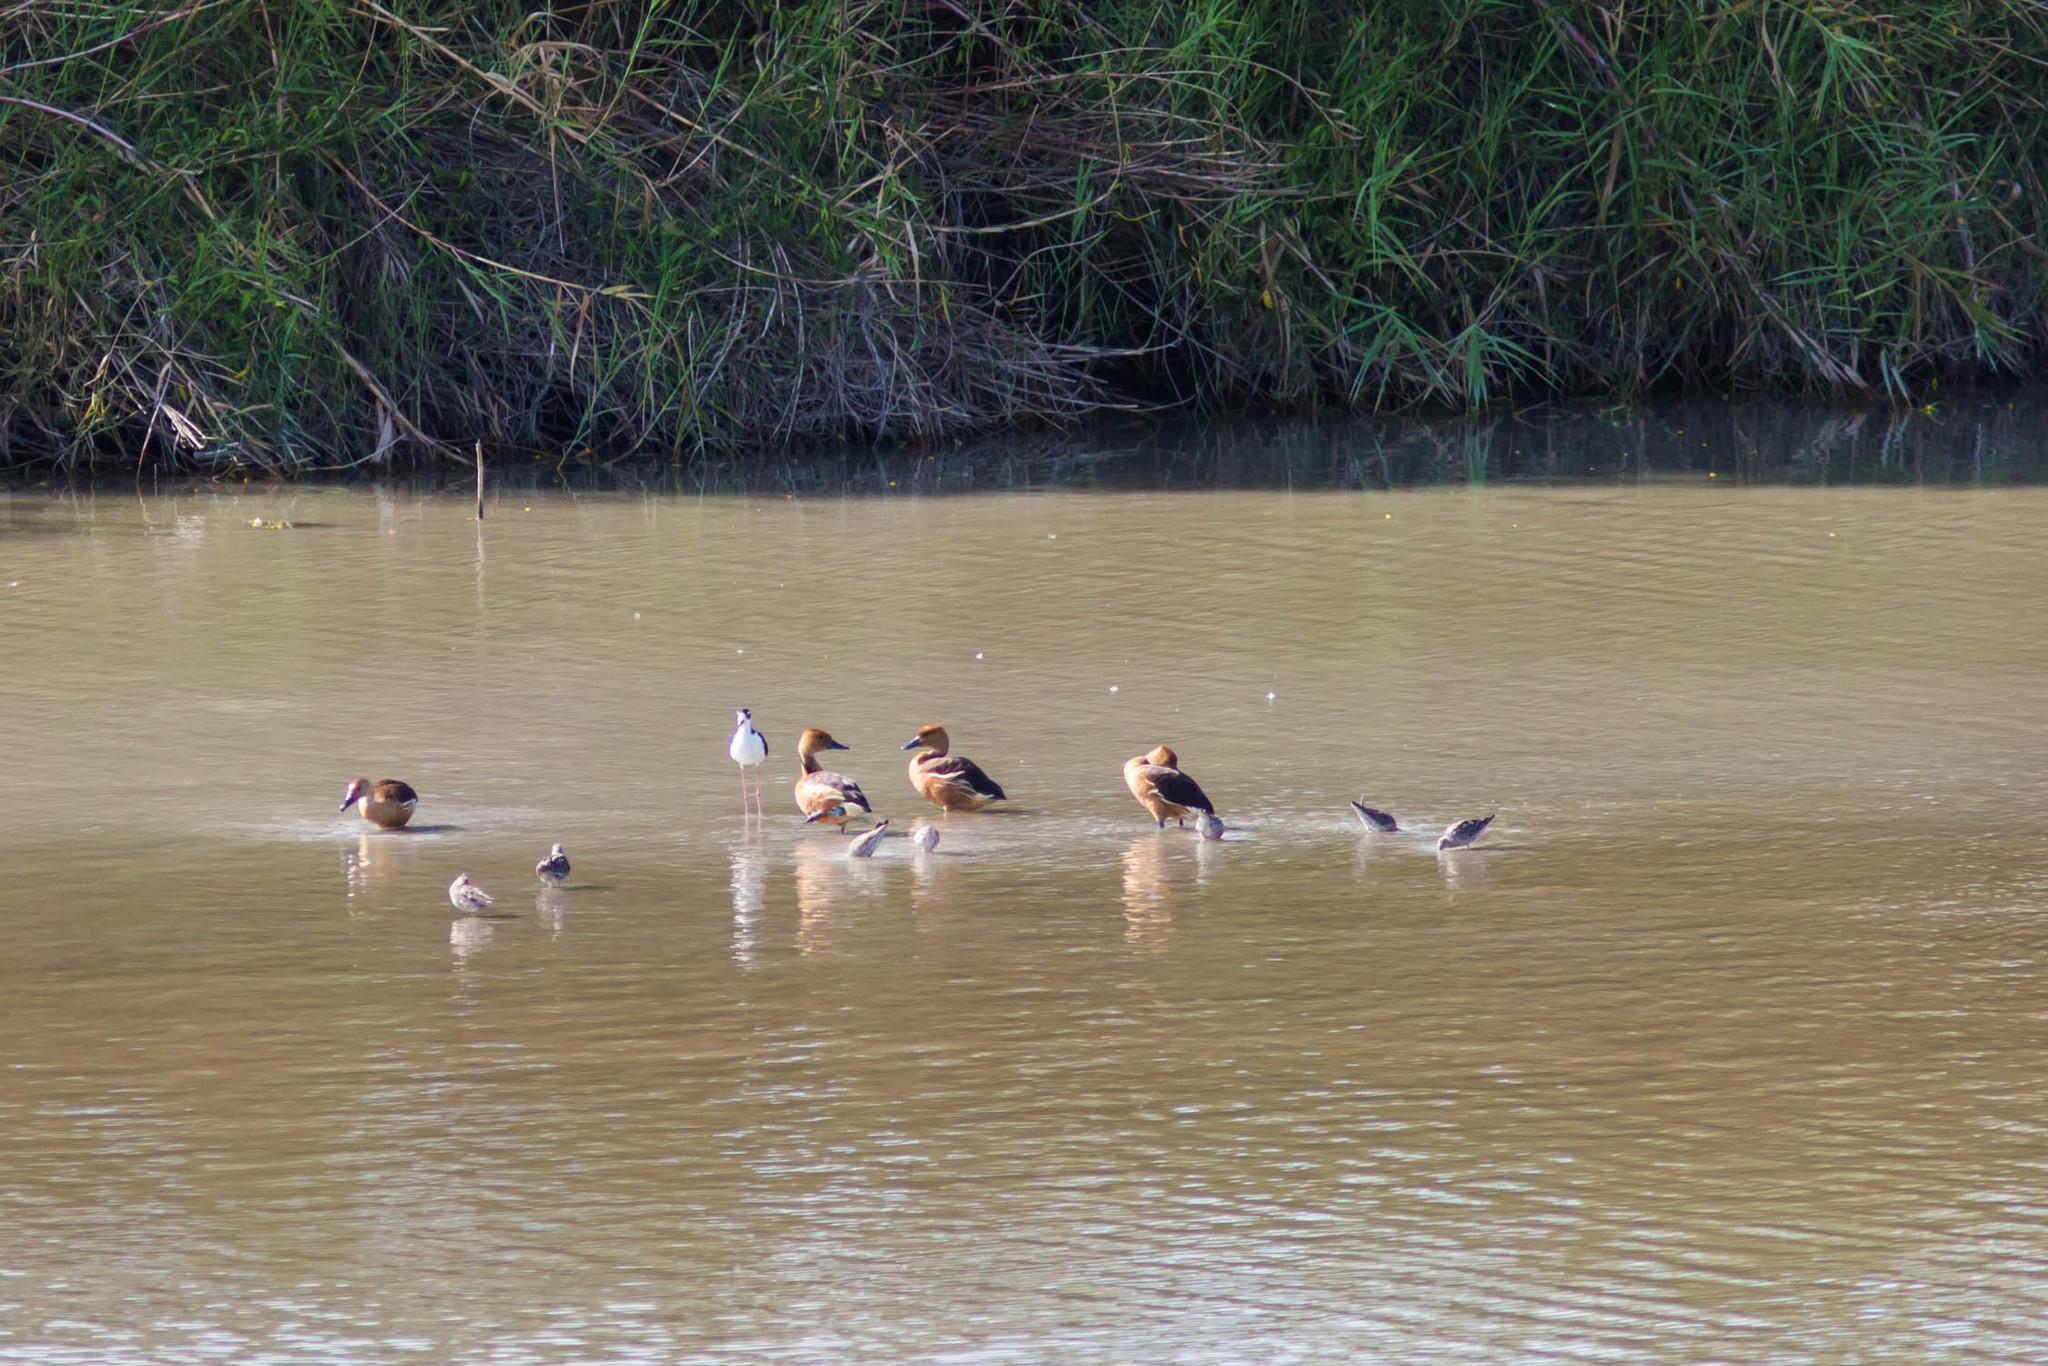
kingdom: Animalia
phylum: Chordata
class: Aves
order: Anseriformes
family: Anatidae
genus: Dendrocygna
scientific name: Dendrocygna bicolor
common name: Fulvous whistling duck
